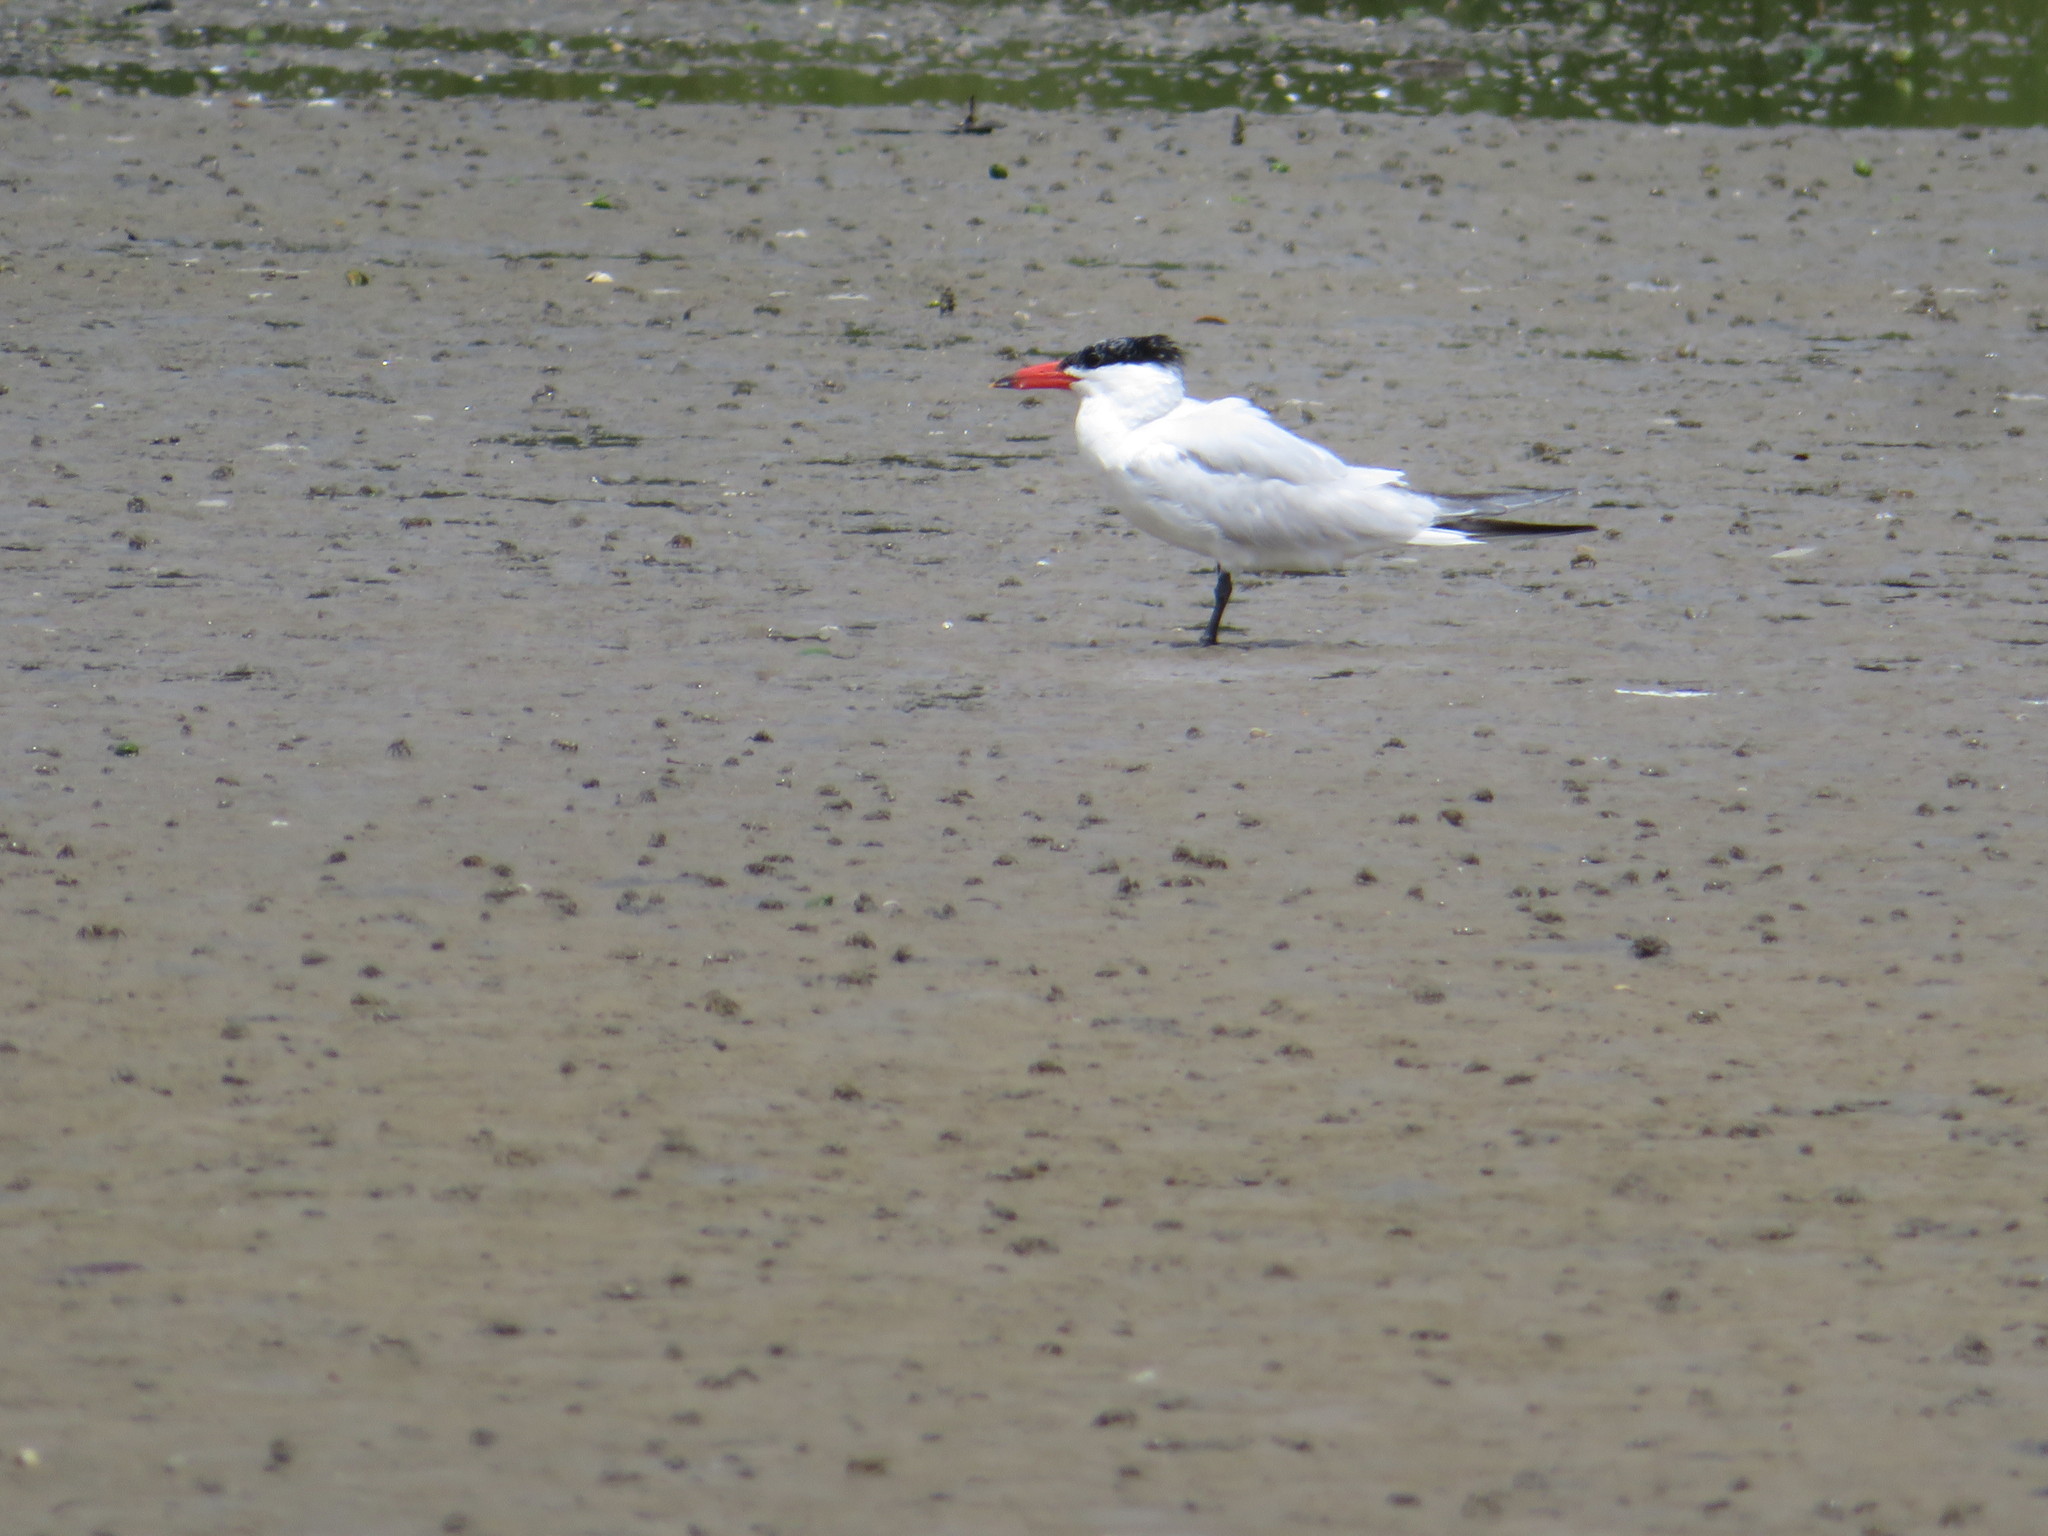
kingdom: Animalia
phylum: Chordata
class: Aves
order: Charadriiformes
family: Laridae
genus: Hydroprogne
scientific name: Hydroprogne caspia
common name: Caspian tern
